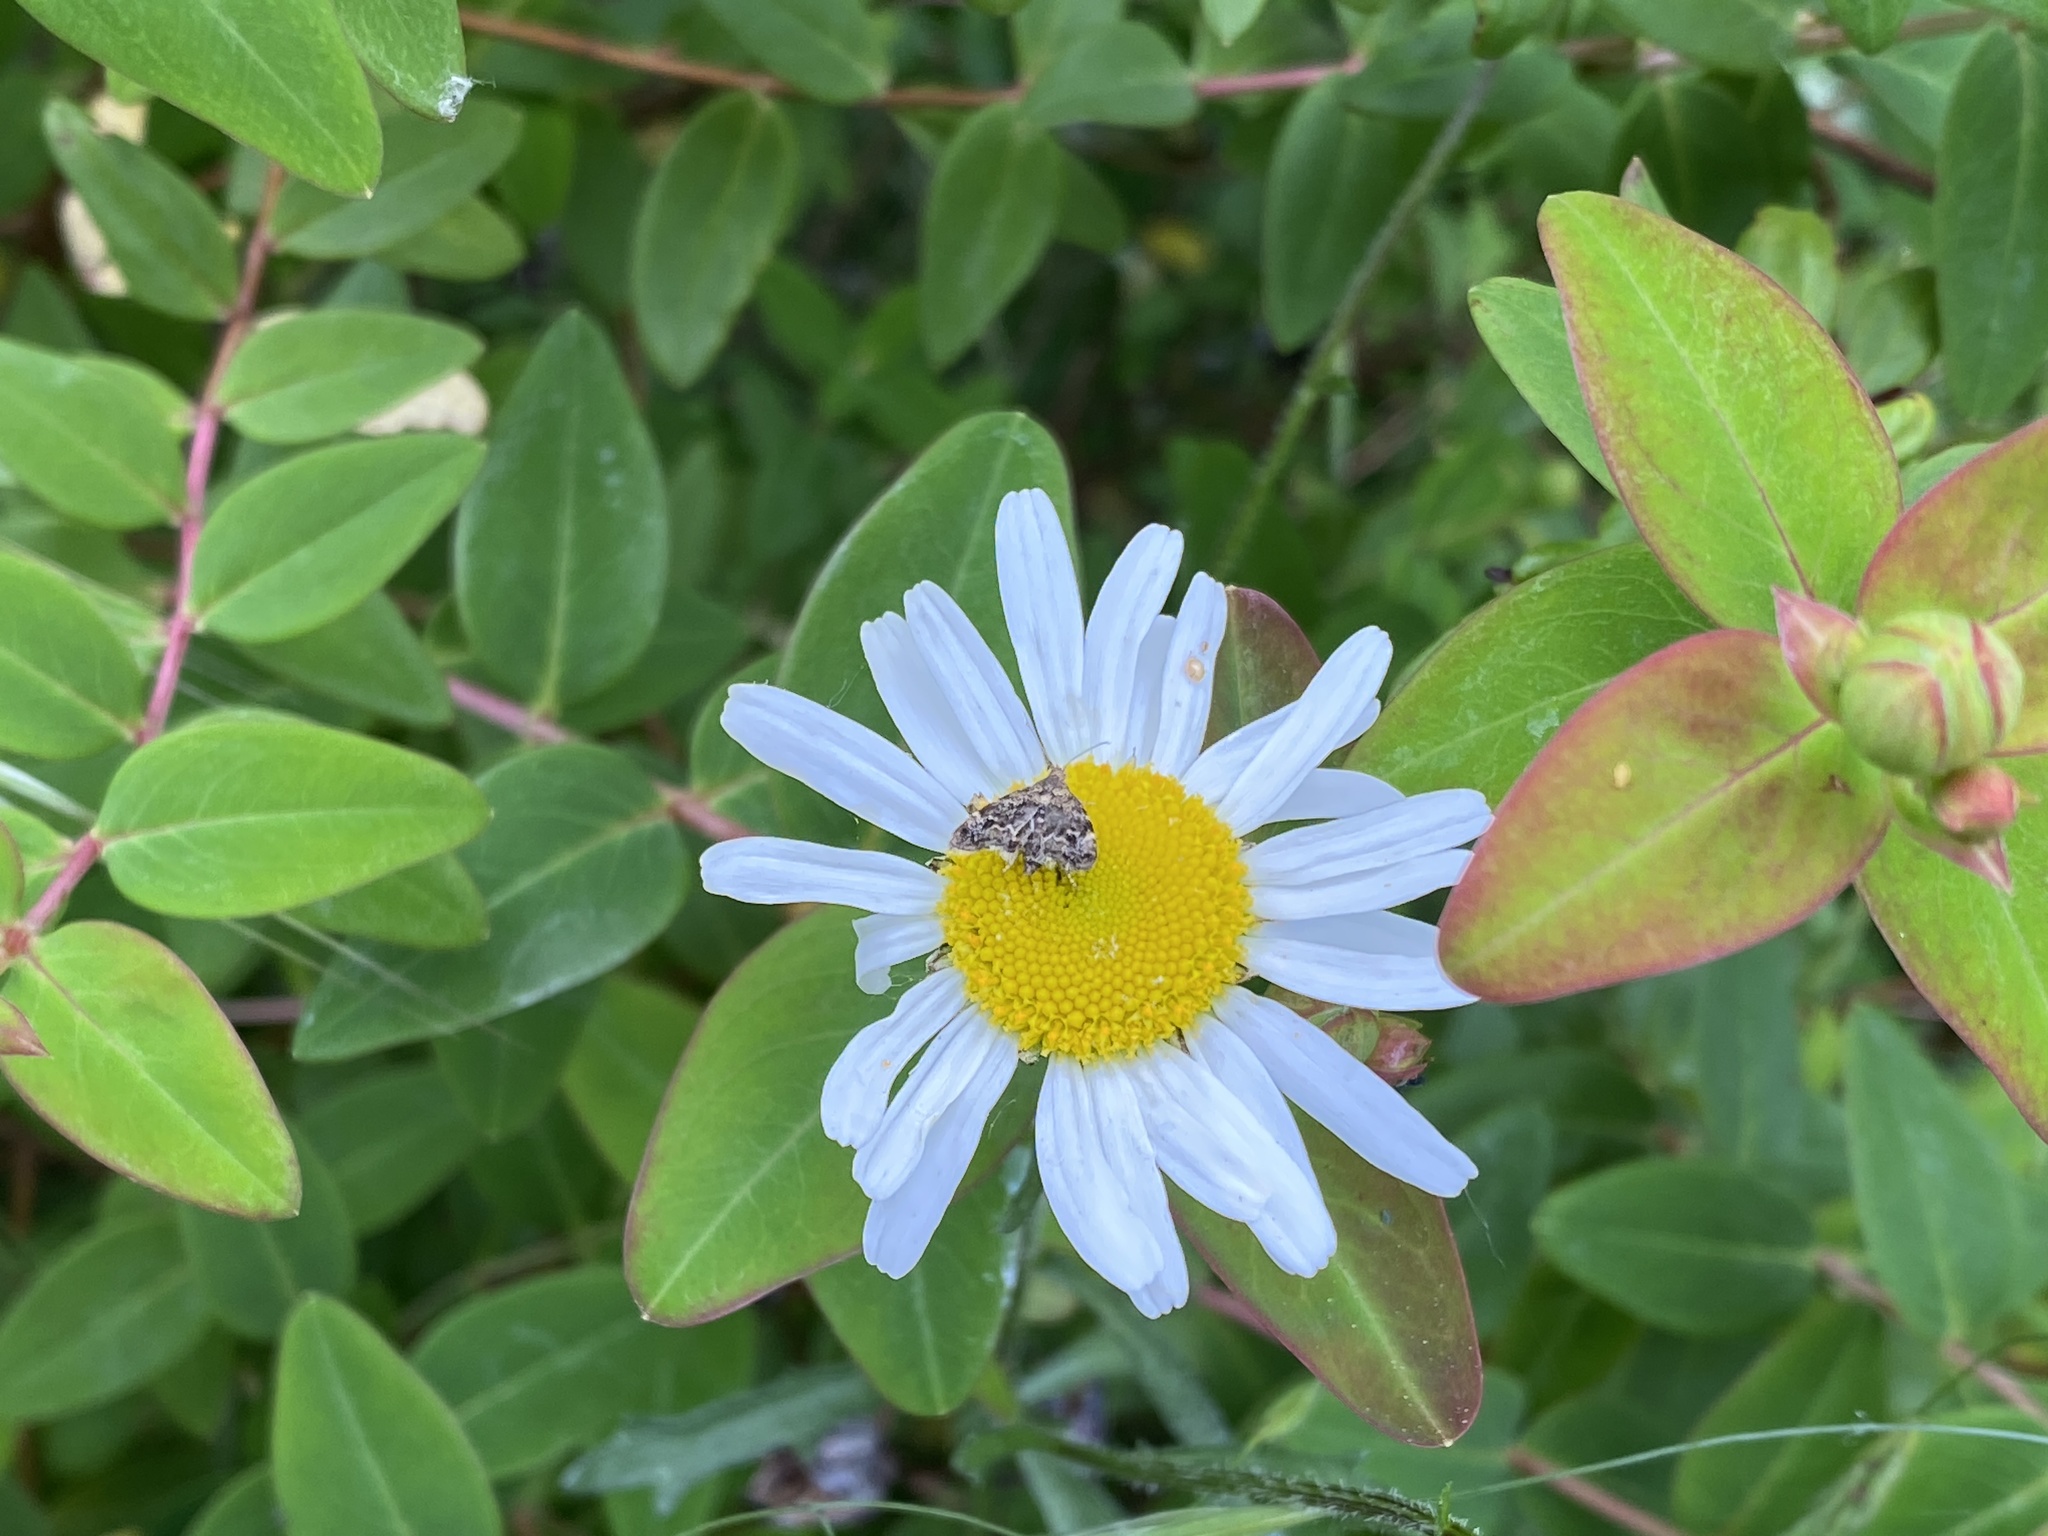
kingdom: Animalia
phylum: Arthropoda
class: Insecta
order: Lepidoptera
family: Choreutidae
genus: Anthophila
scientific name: Anthophila fabriciana
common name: Nettle-tap
